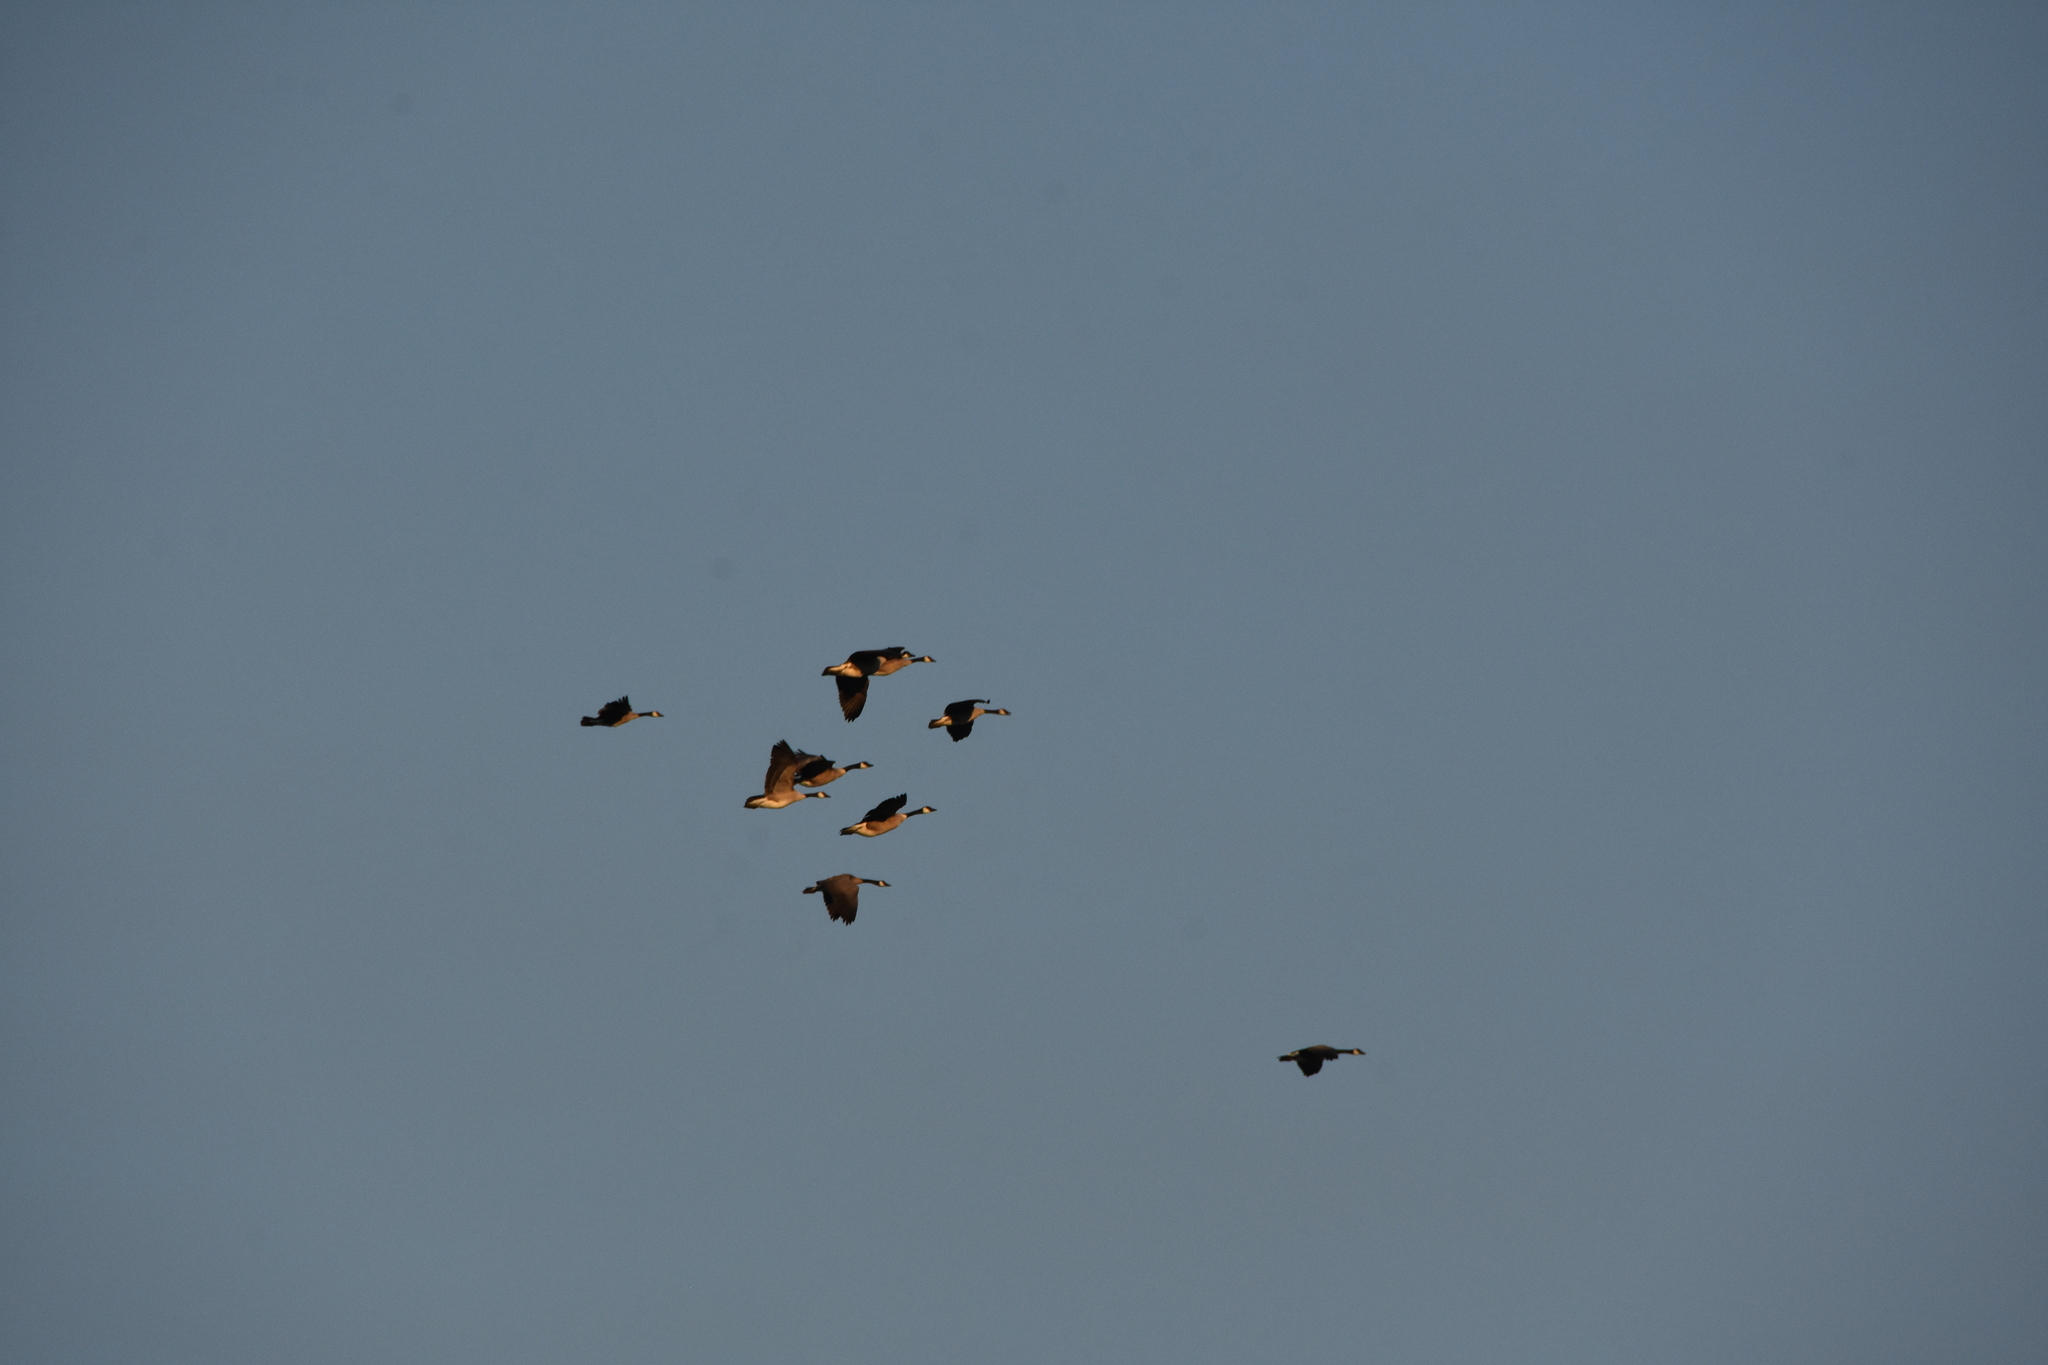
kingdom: Animalia
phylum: Chordata
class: Aves
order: Anseriformes
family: Anatidae
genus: Branta
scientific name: Branta canadensis
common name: Canada goose
